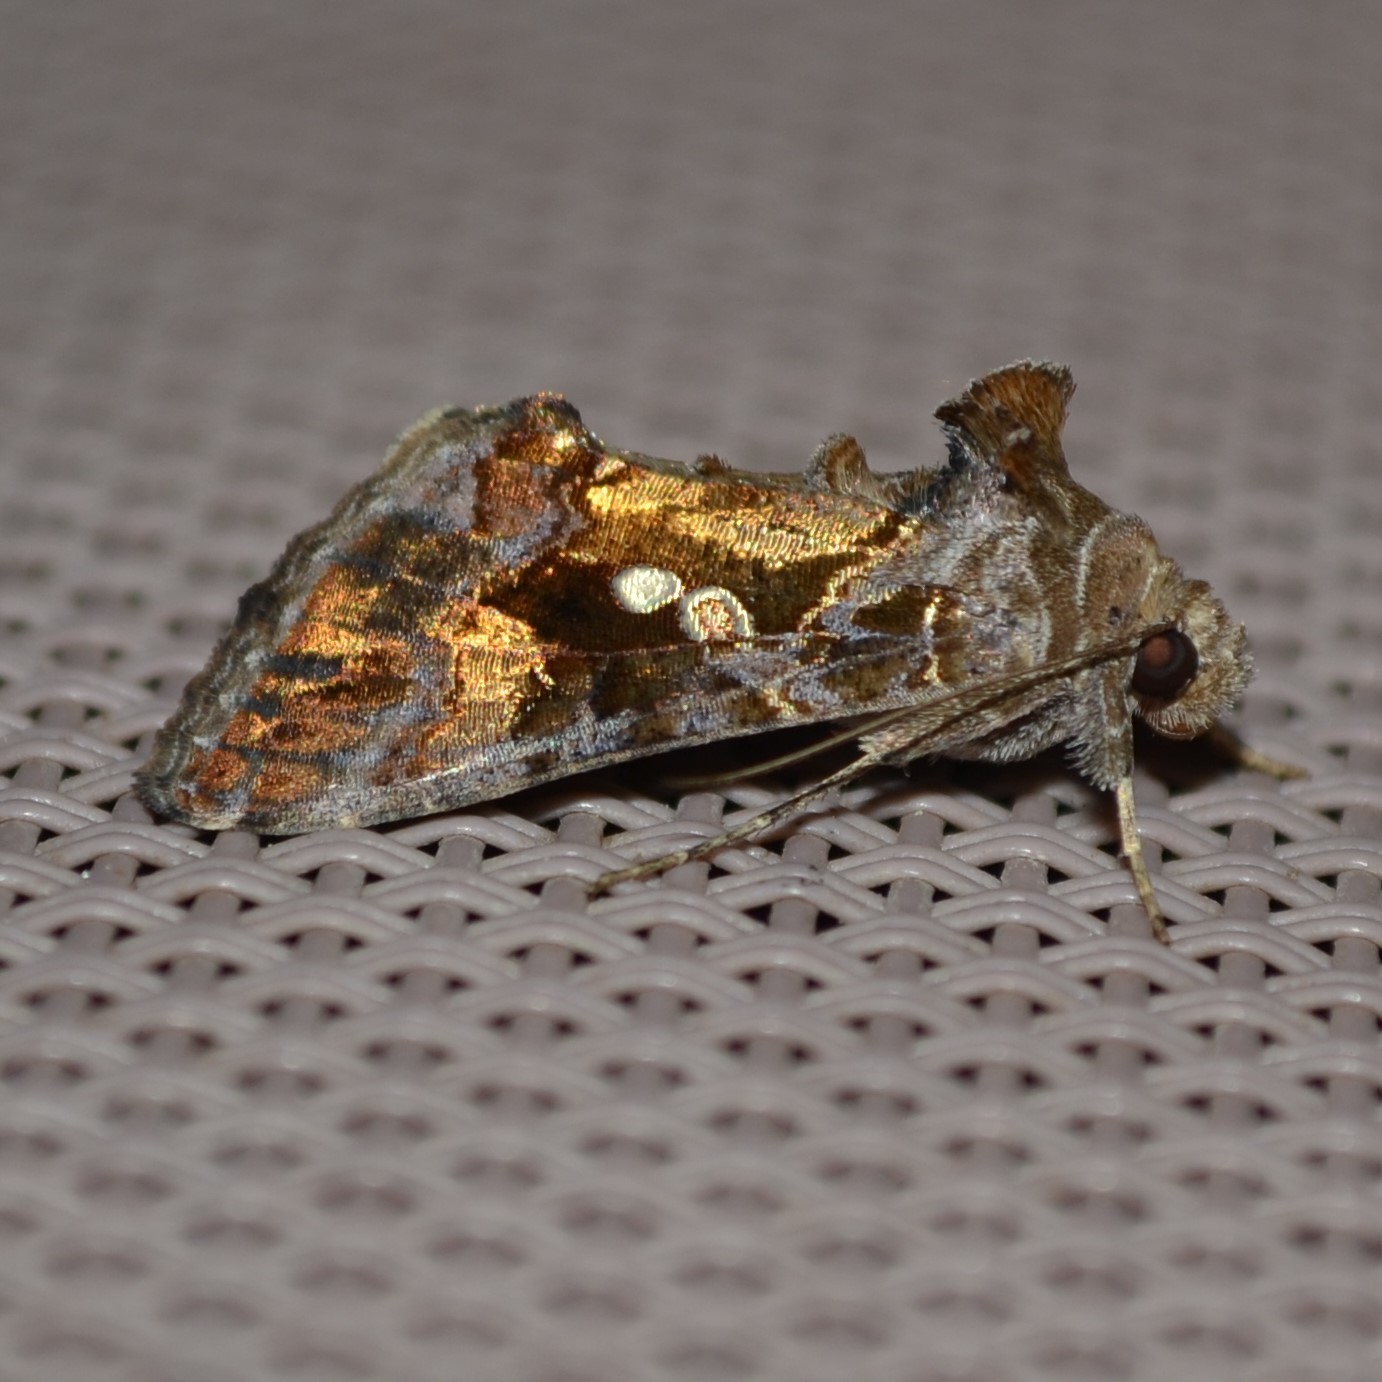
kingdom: Animalia
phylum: Arthropoda
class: Insecta
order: Lepidoptera
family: Noctuidae
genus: Chrysodeixis
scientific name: Chrysodeixis includens
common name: Cutworm moth
